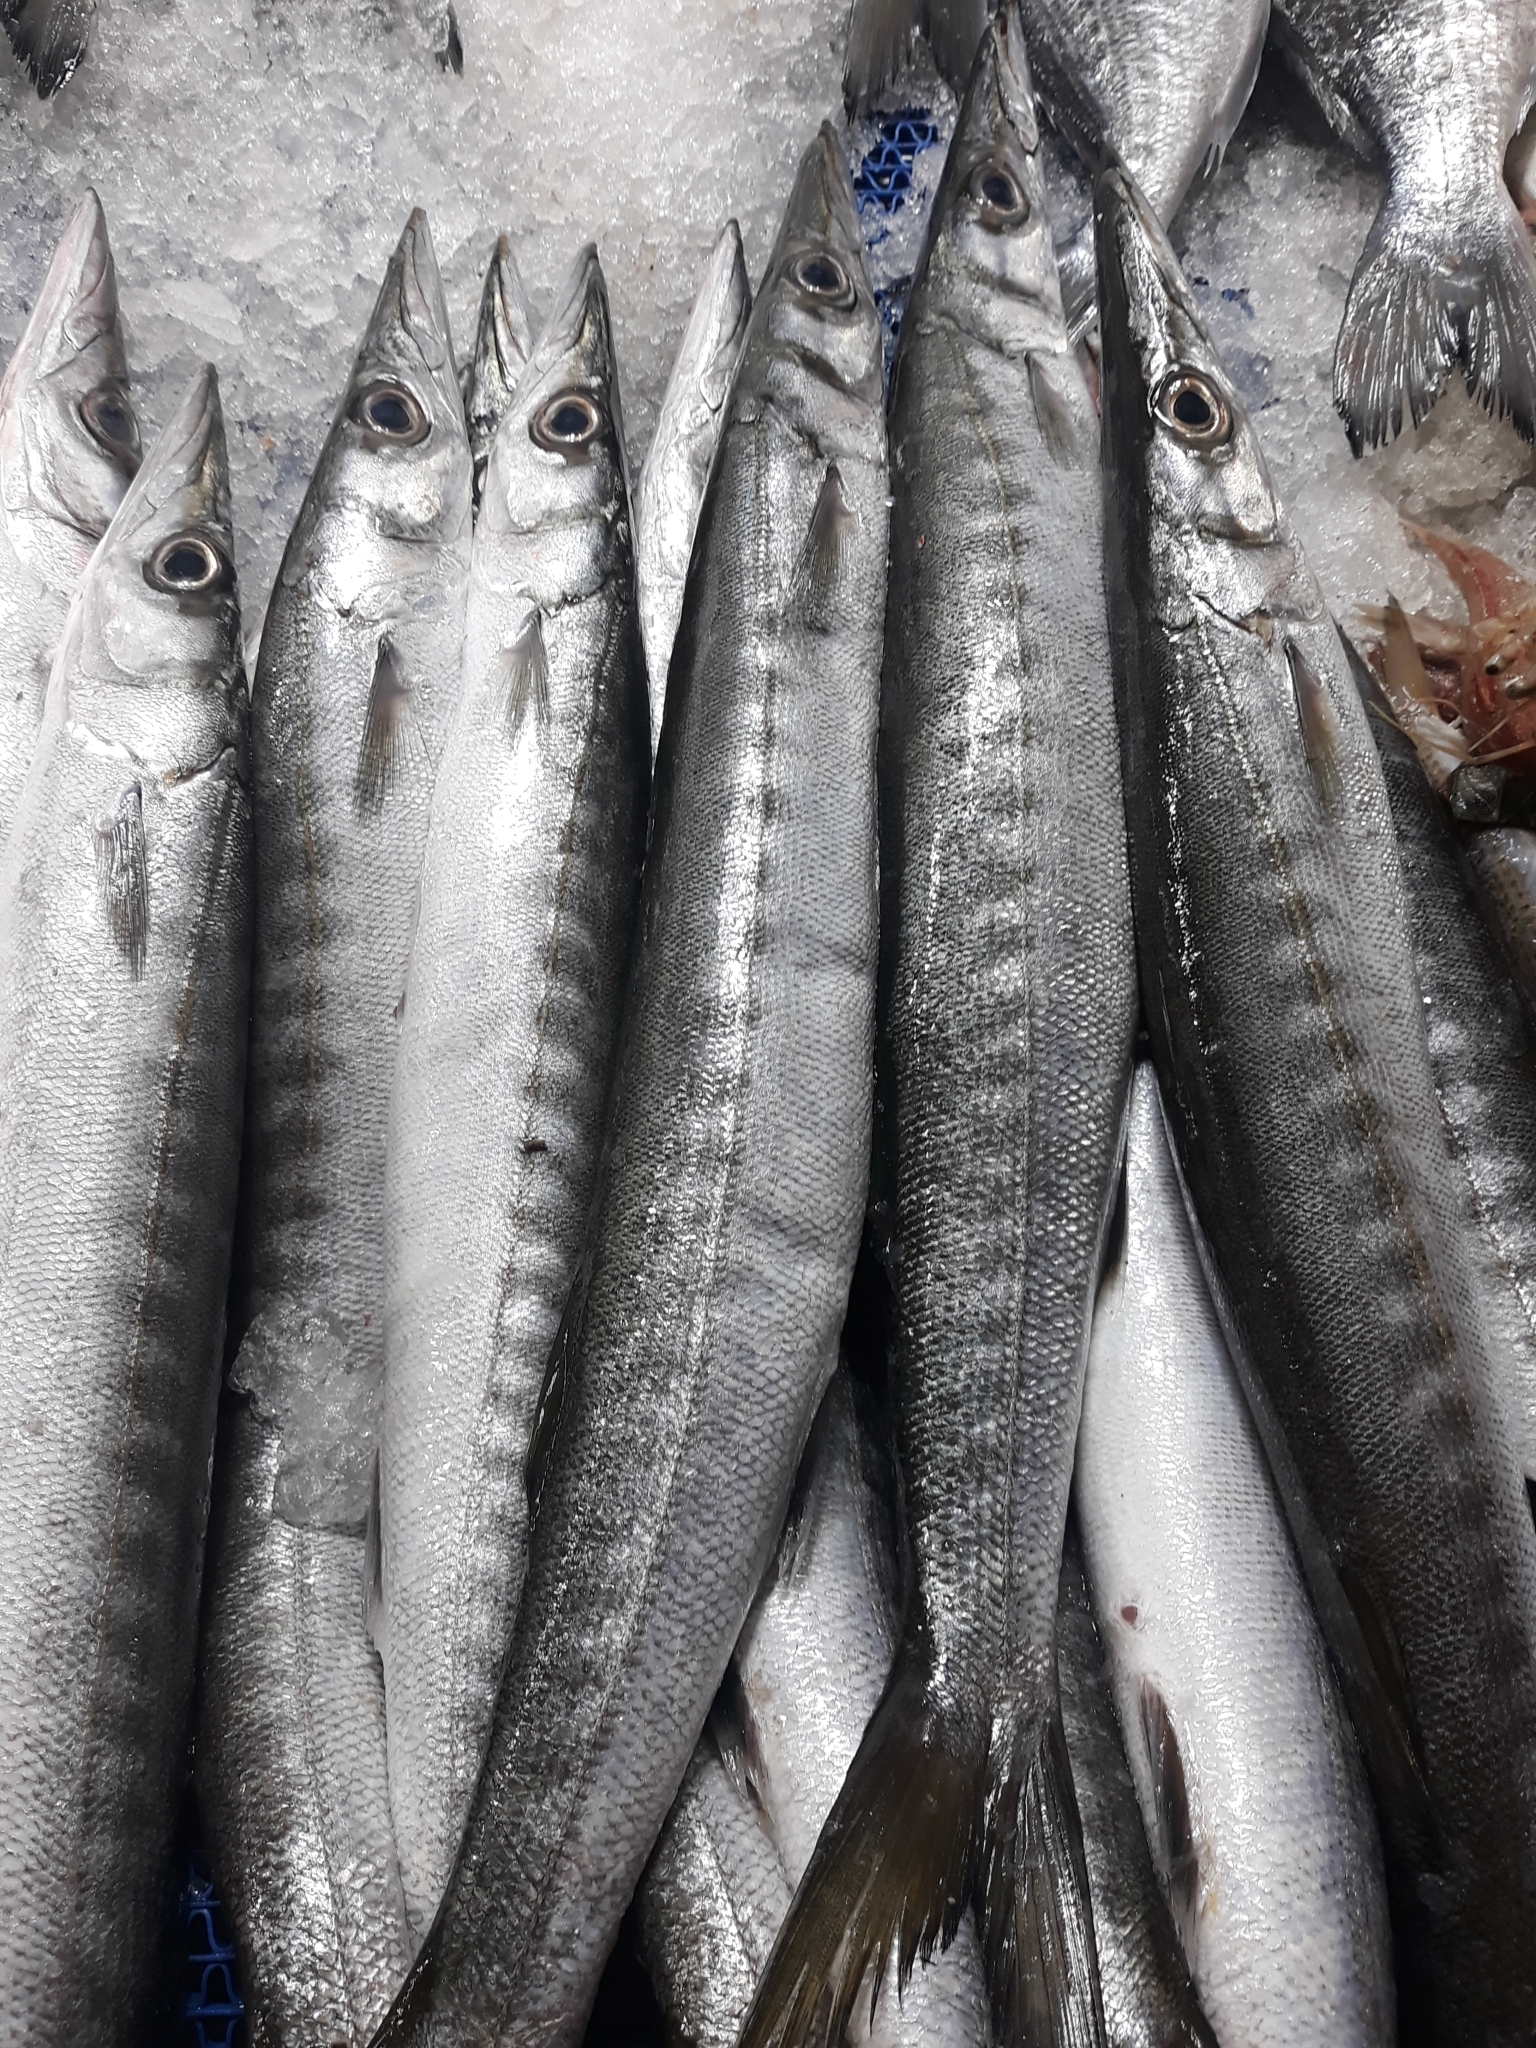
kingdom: Animalia
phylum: Chordata
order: Perciformes
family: Sphyraenidae
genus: Sphyraena
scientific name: Sphyraena viridensis
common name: Yellowmouth barracuda
